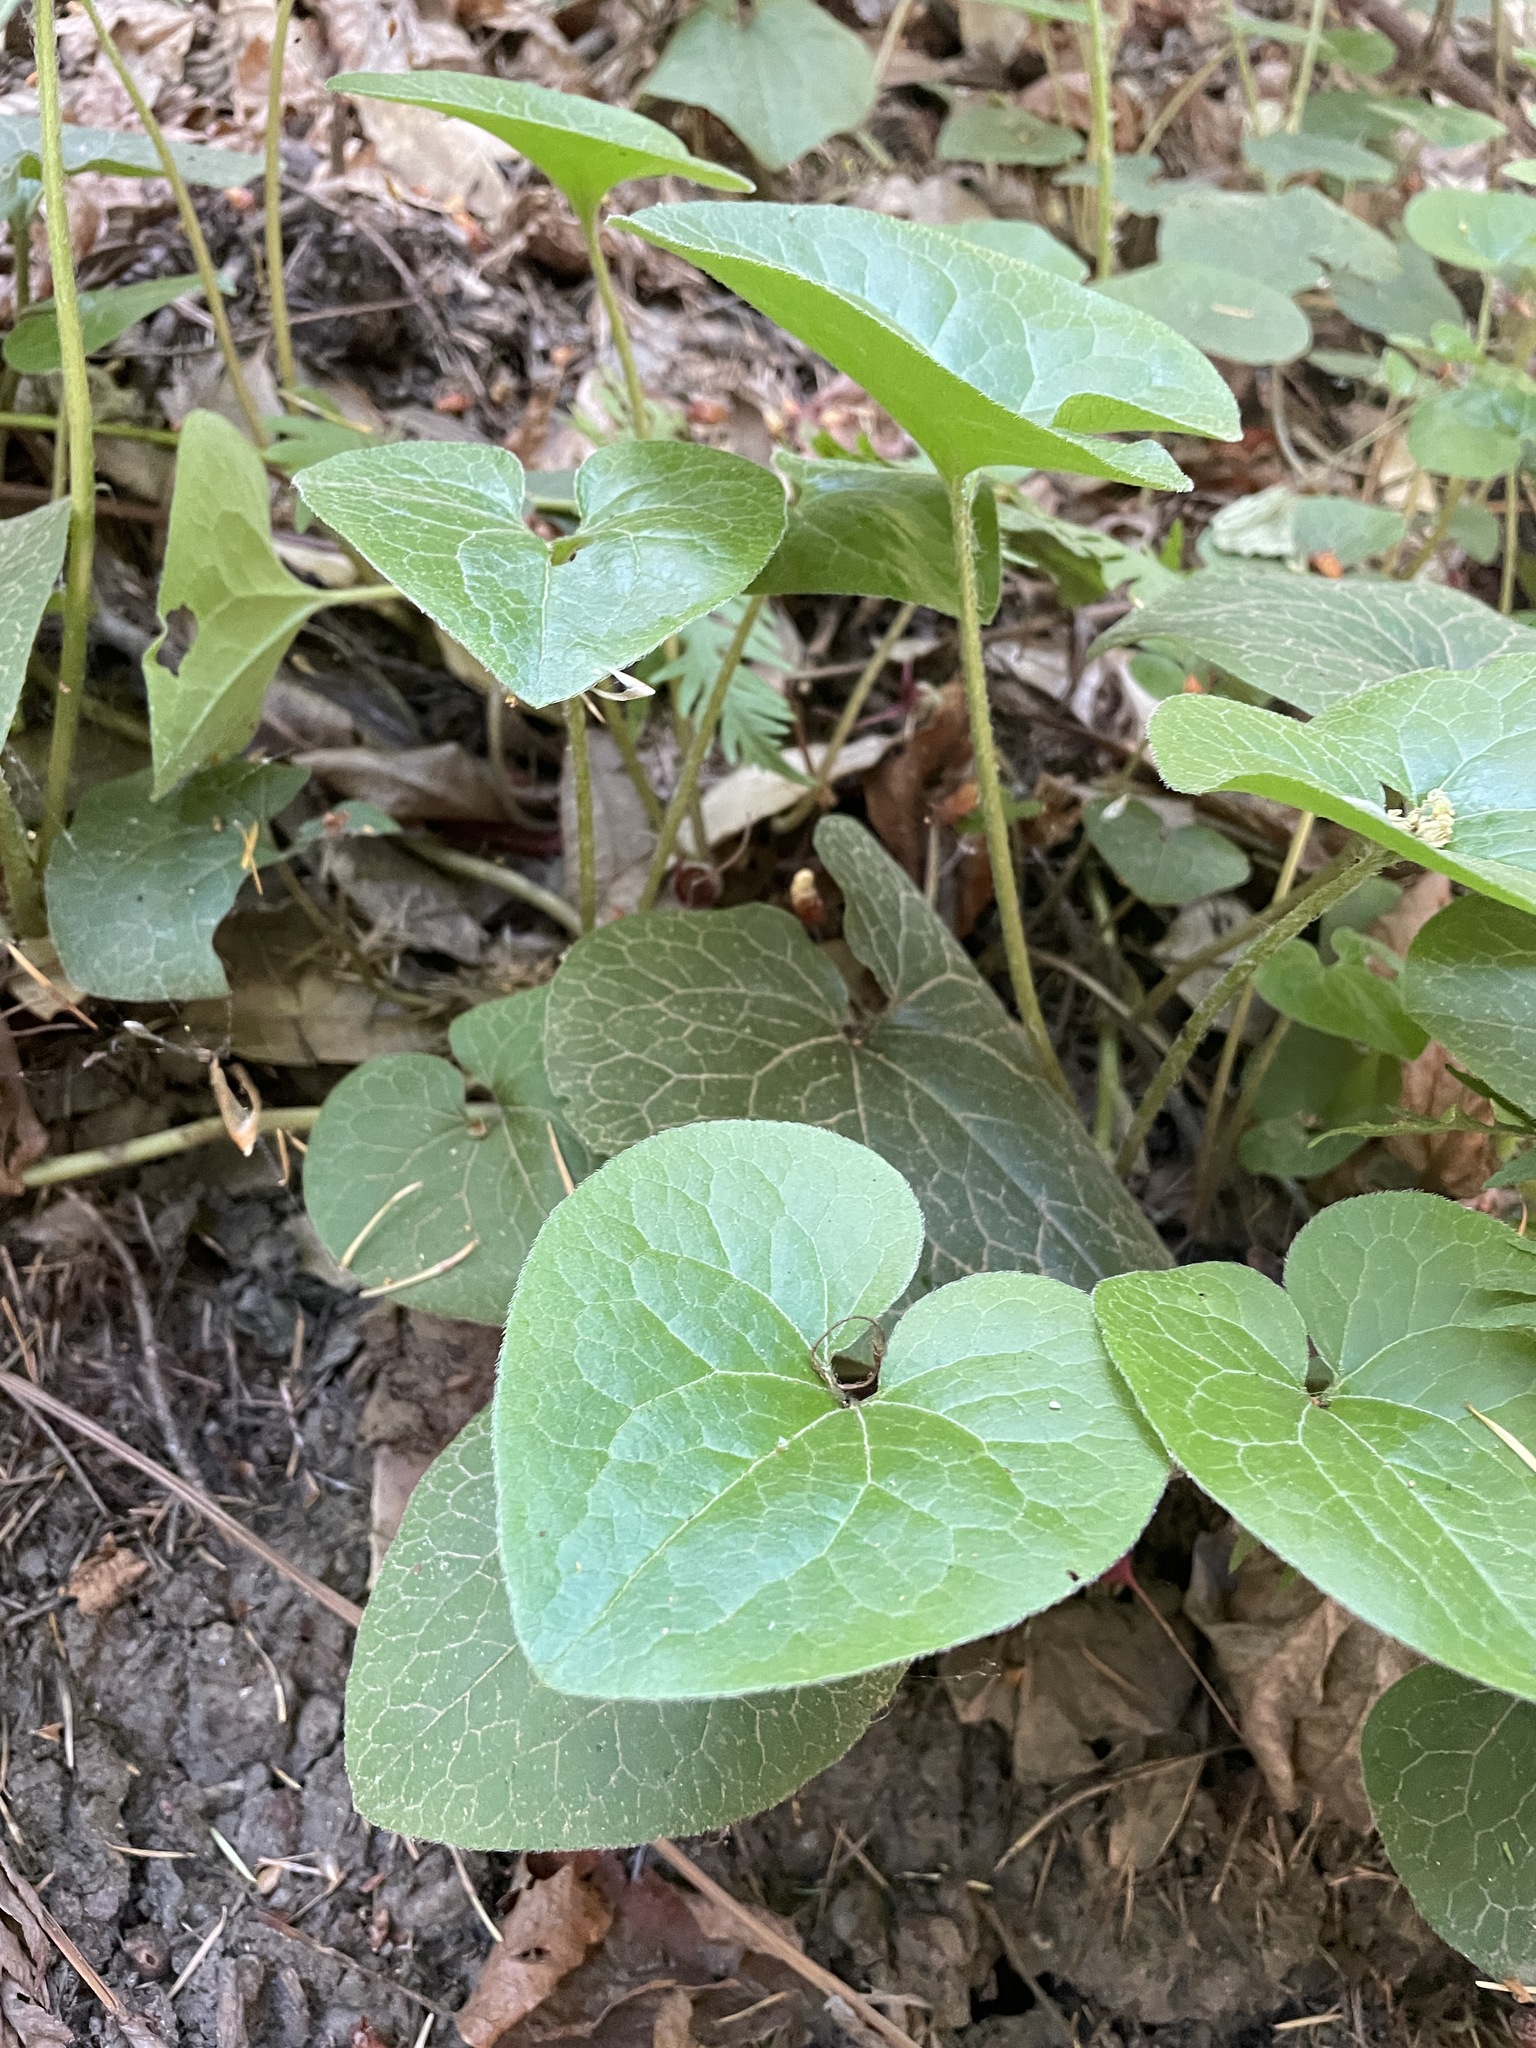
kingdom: Plantae
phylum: Tracheophyta
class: Magnoliopsida
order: Piperales
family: Aristolochiaceae
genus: Asarum
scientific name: Asarum caudatum
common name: Wild ginger
